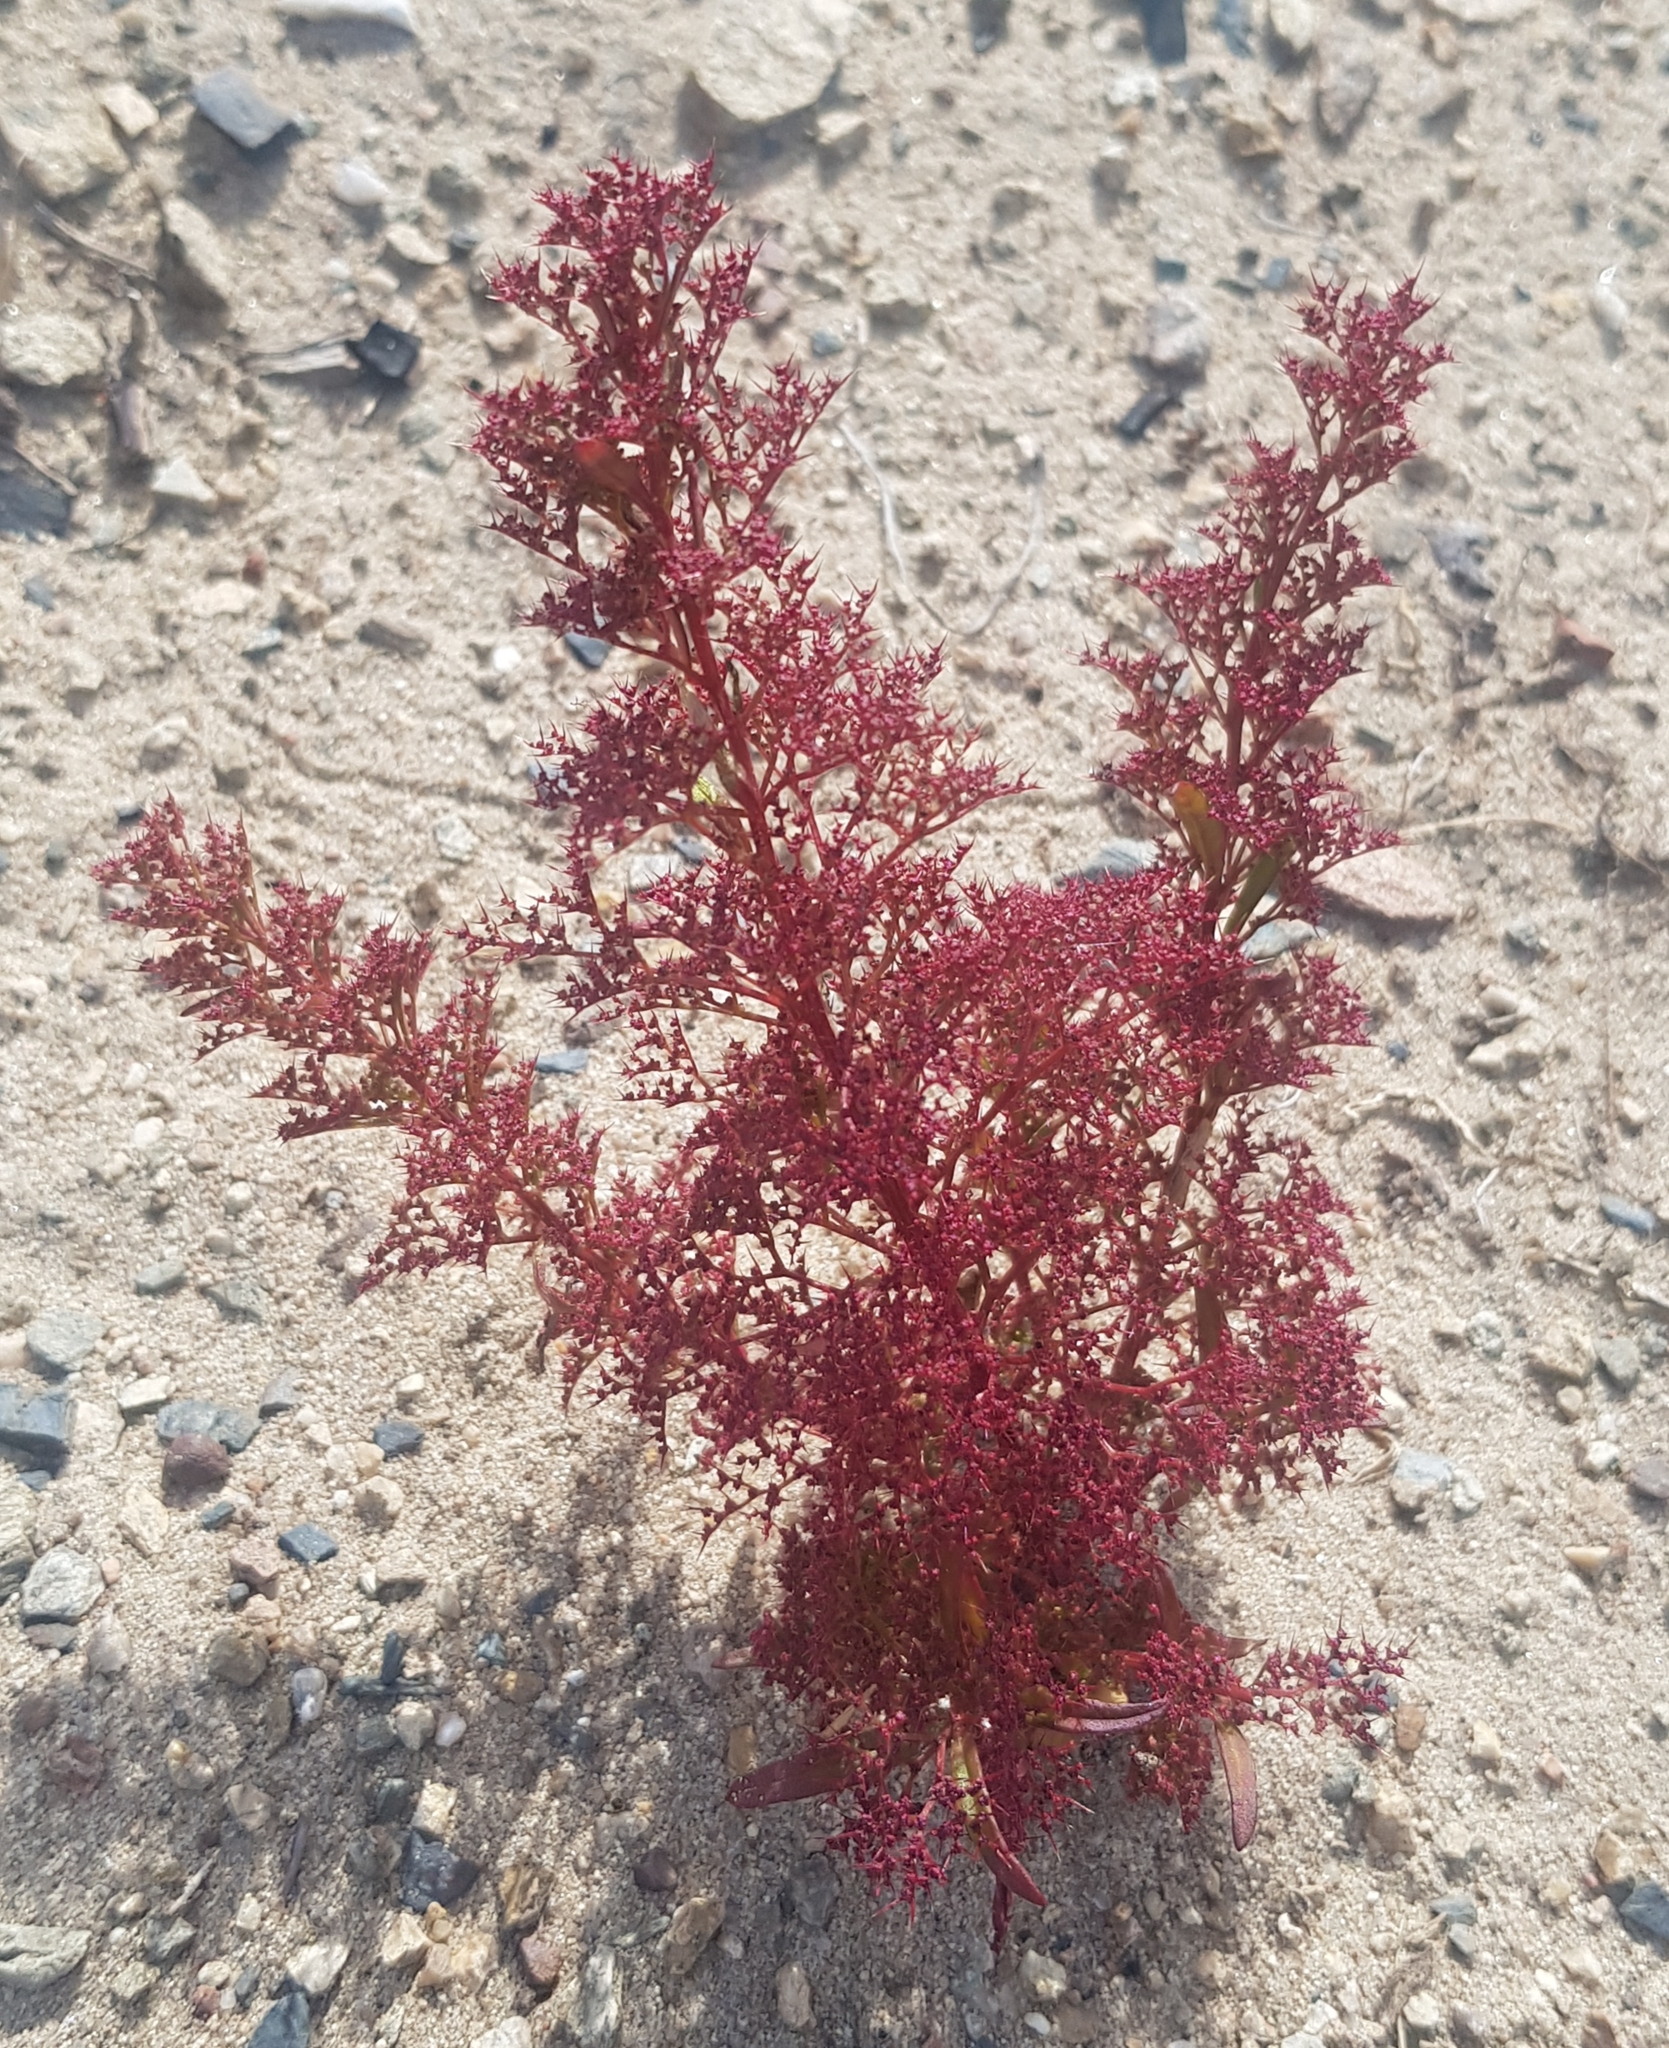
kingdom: Plantae
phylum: Tracheophyta
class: Magnoliopsida
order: Caryophyllales
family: Amaranthaceae
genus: Teloxys
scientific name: Teloxys aristata
